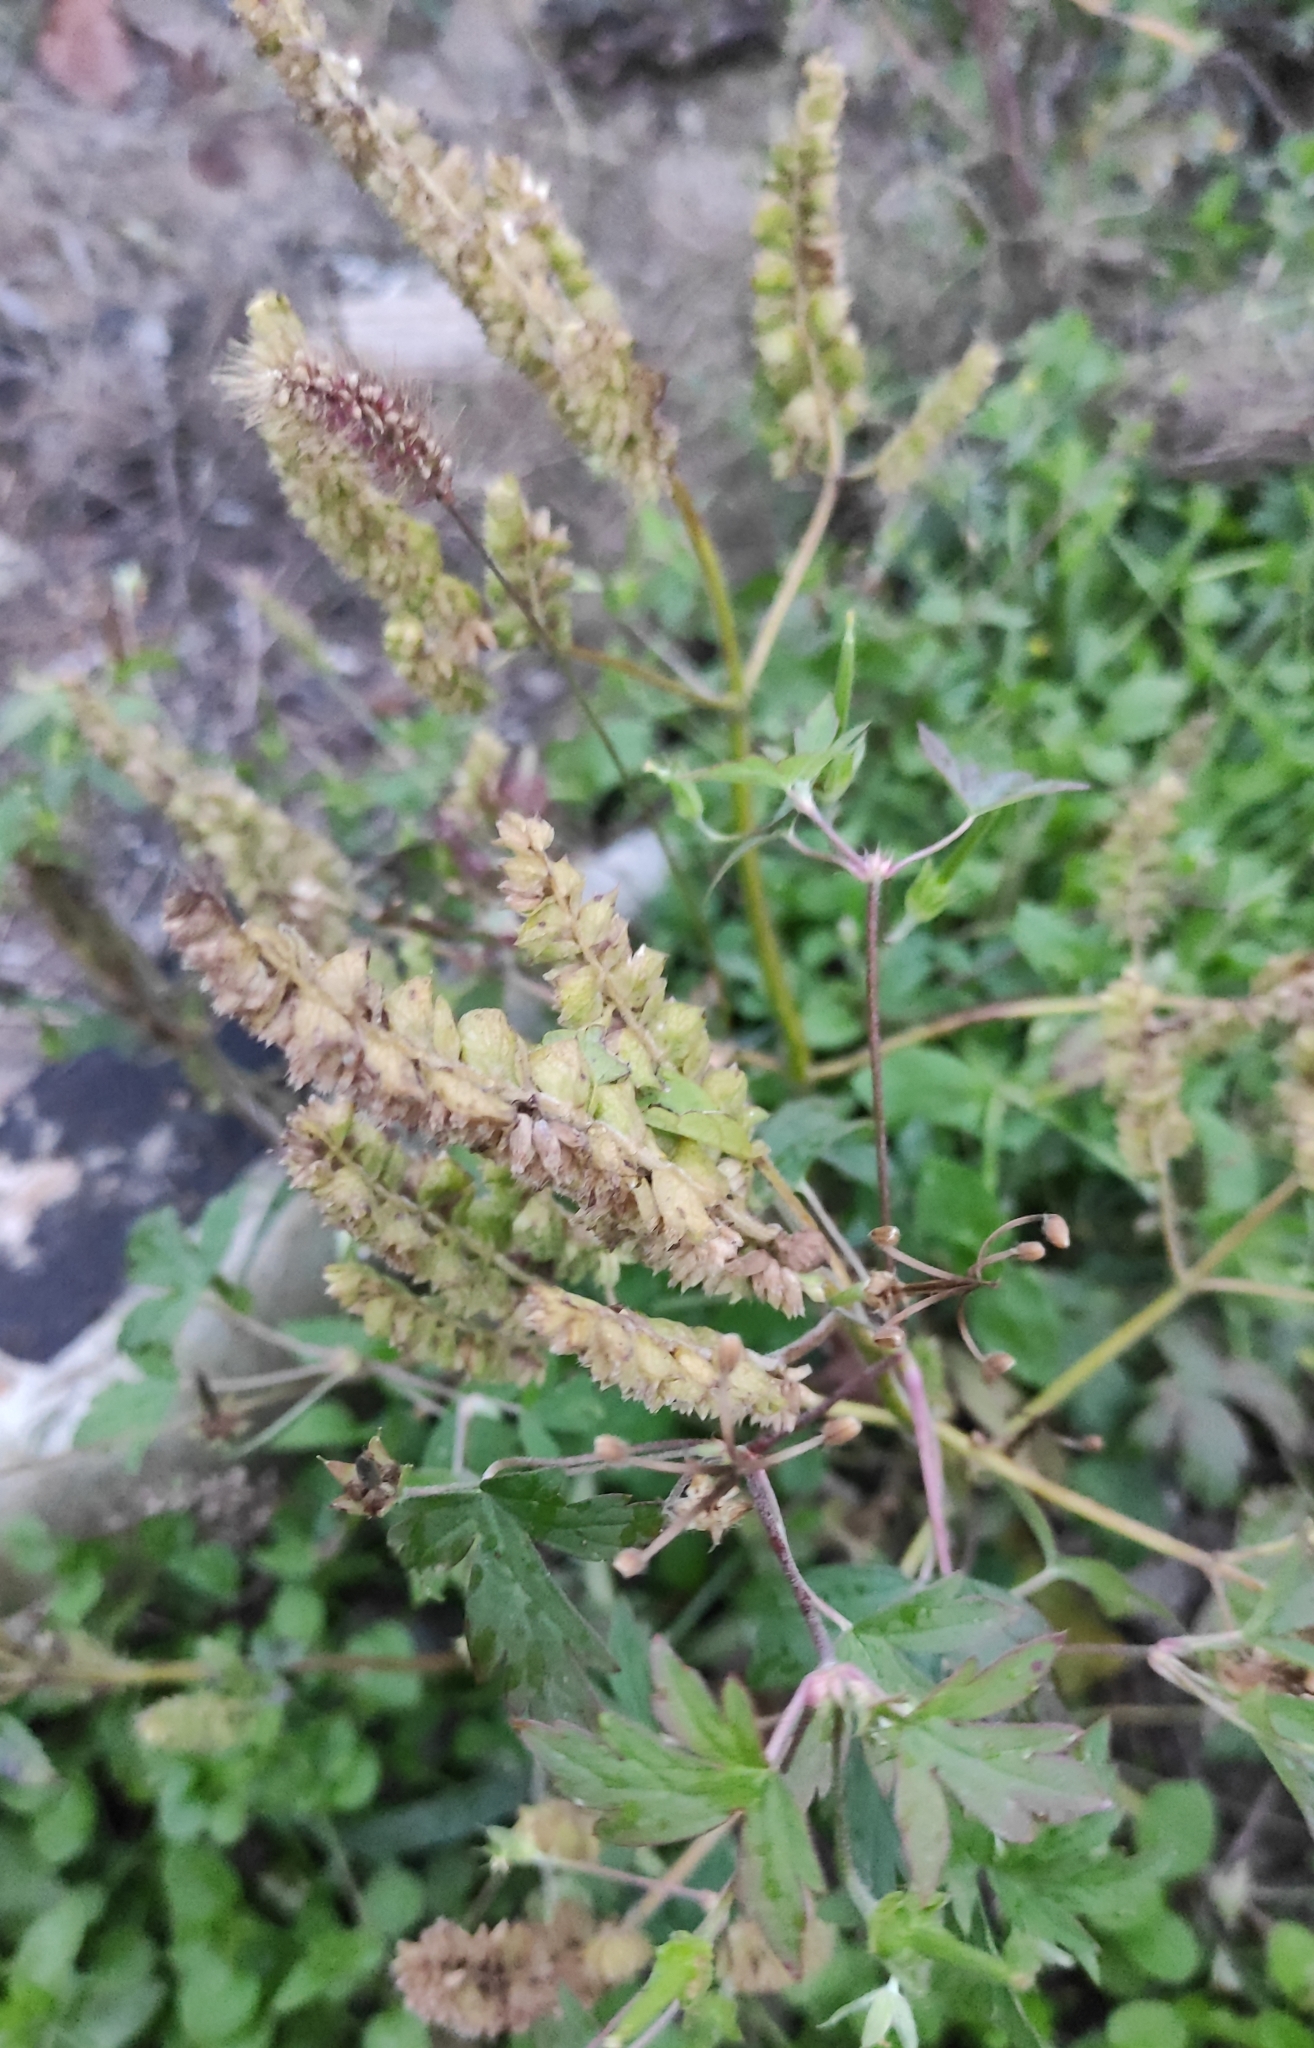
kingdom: Plantae
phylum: Tracheophyta
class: Magnoliopsida
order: Lamiales
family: Lamiaceae
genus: Elsholtzia
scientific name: Elsholtzia ciliata
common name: Ciliate elsholtzia
